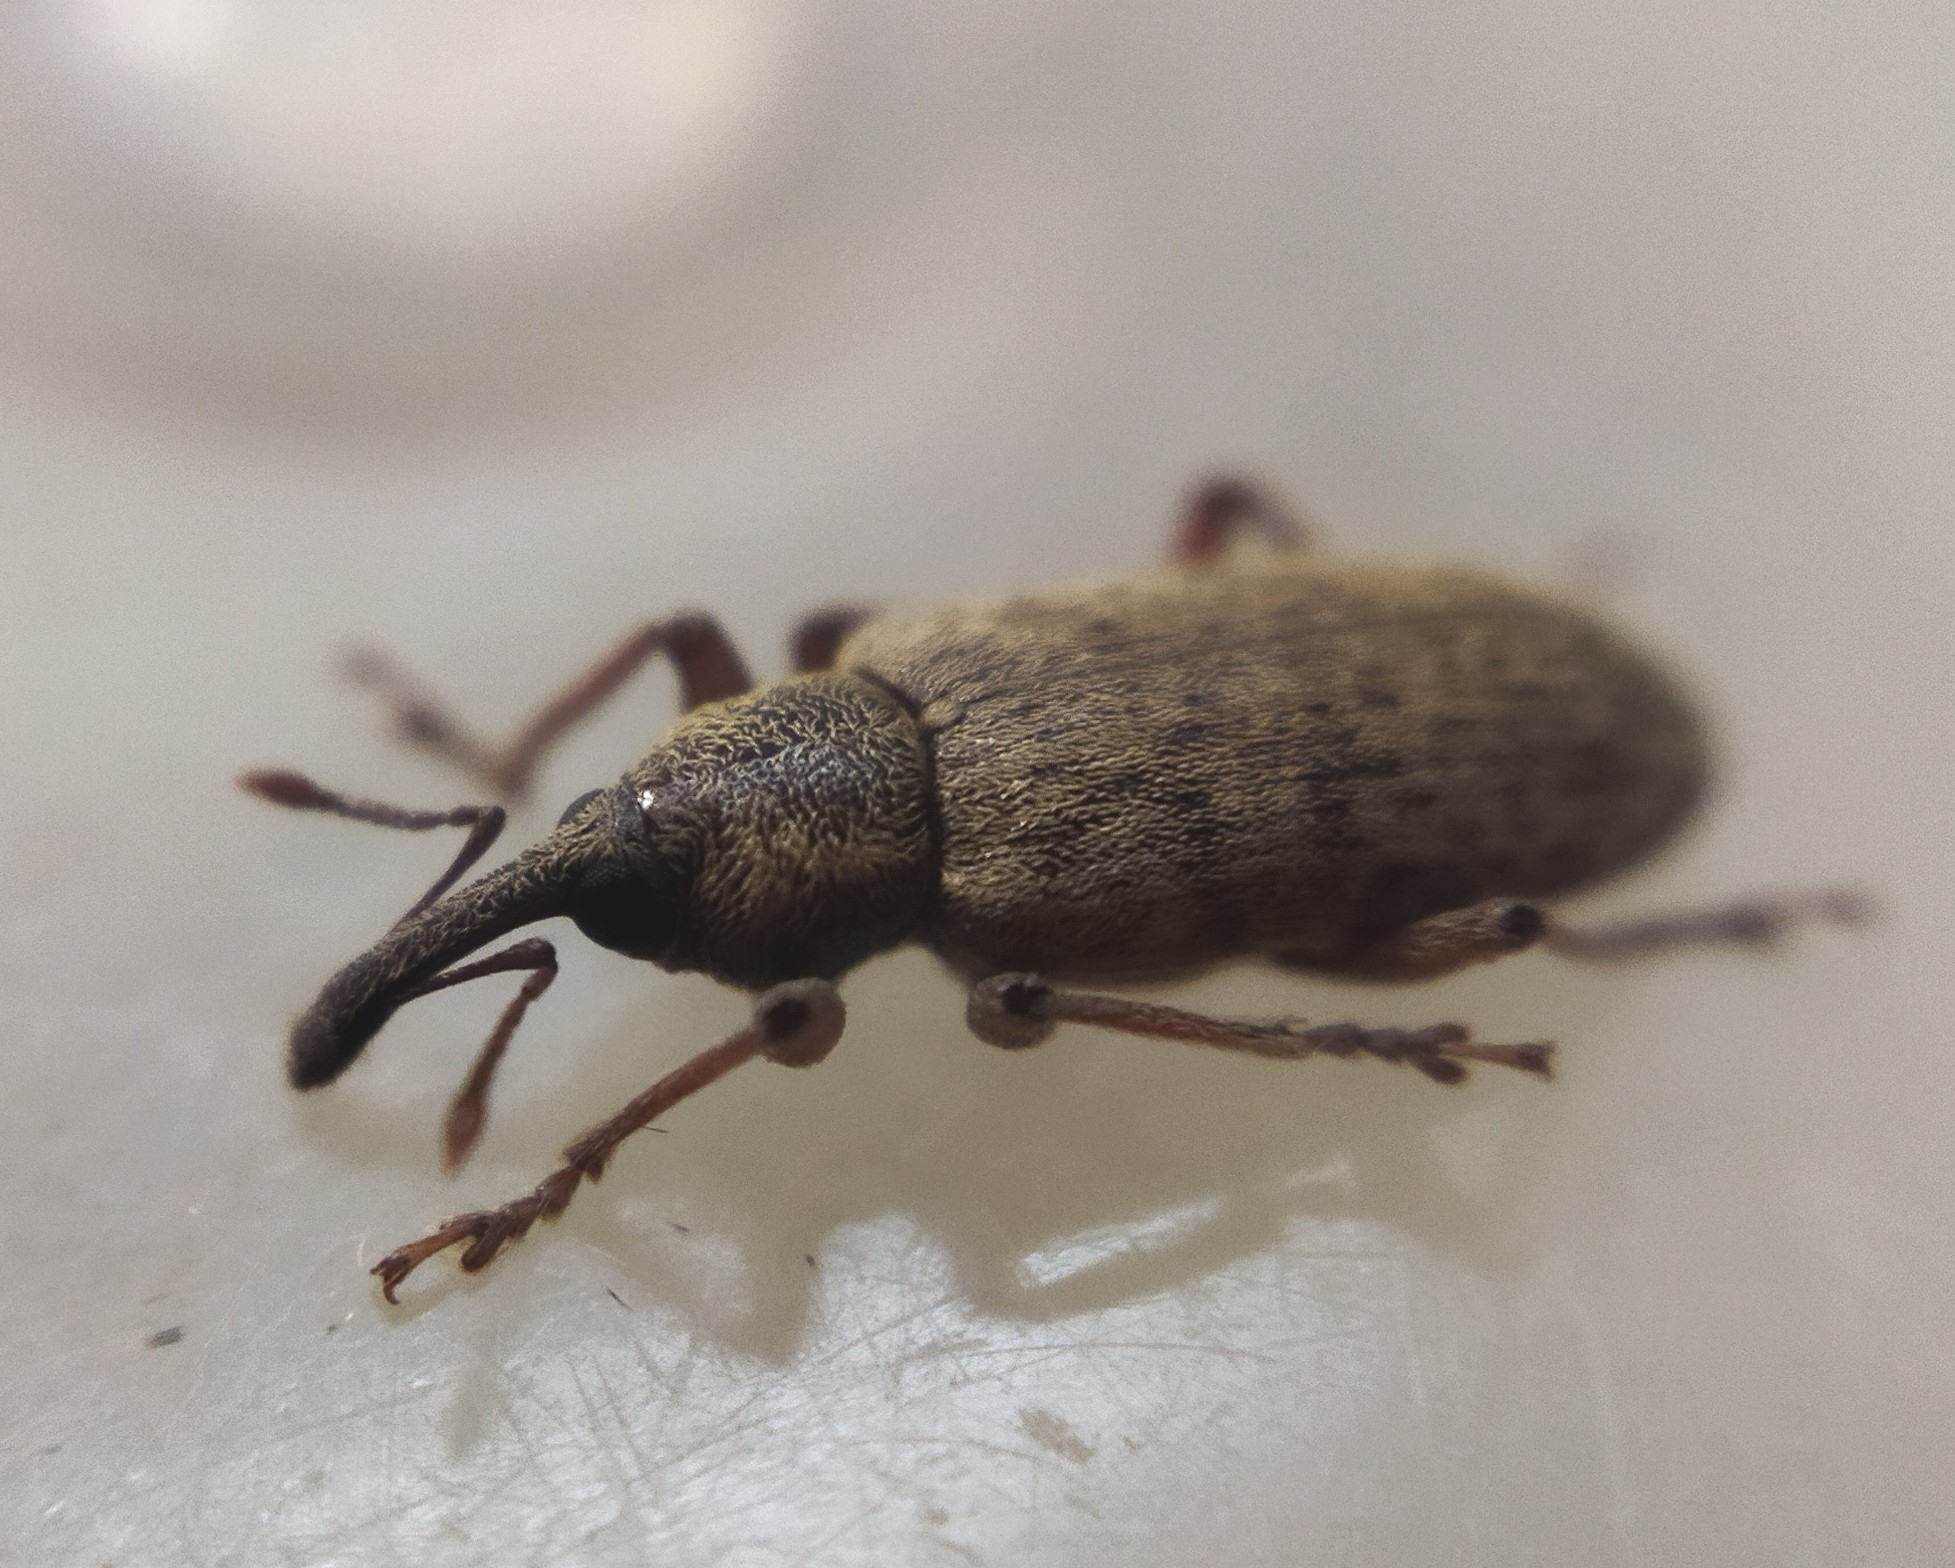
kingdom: Animalia
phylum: Arthropoda
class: Insecta
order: Coleoptera
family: Brachyceridae
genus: Lepidonotaris
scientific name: Lepidonotaris petax
